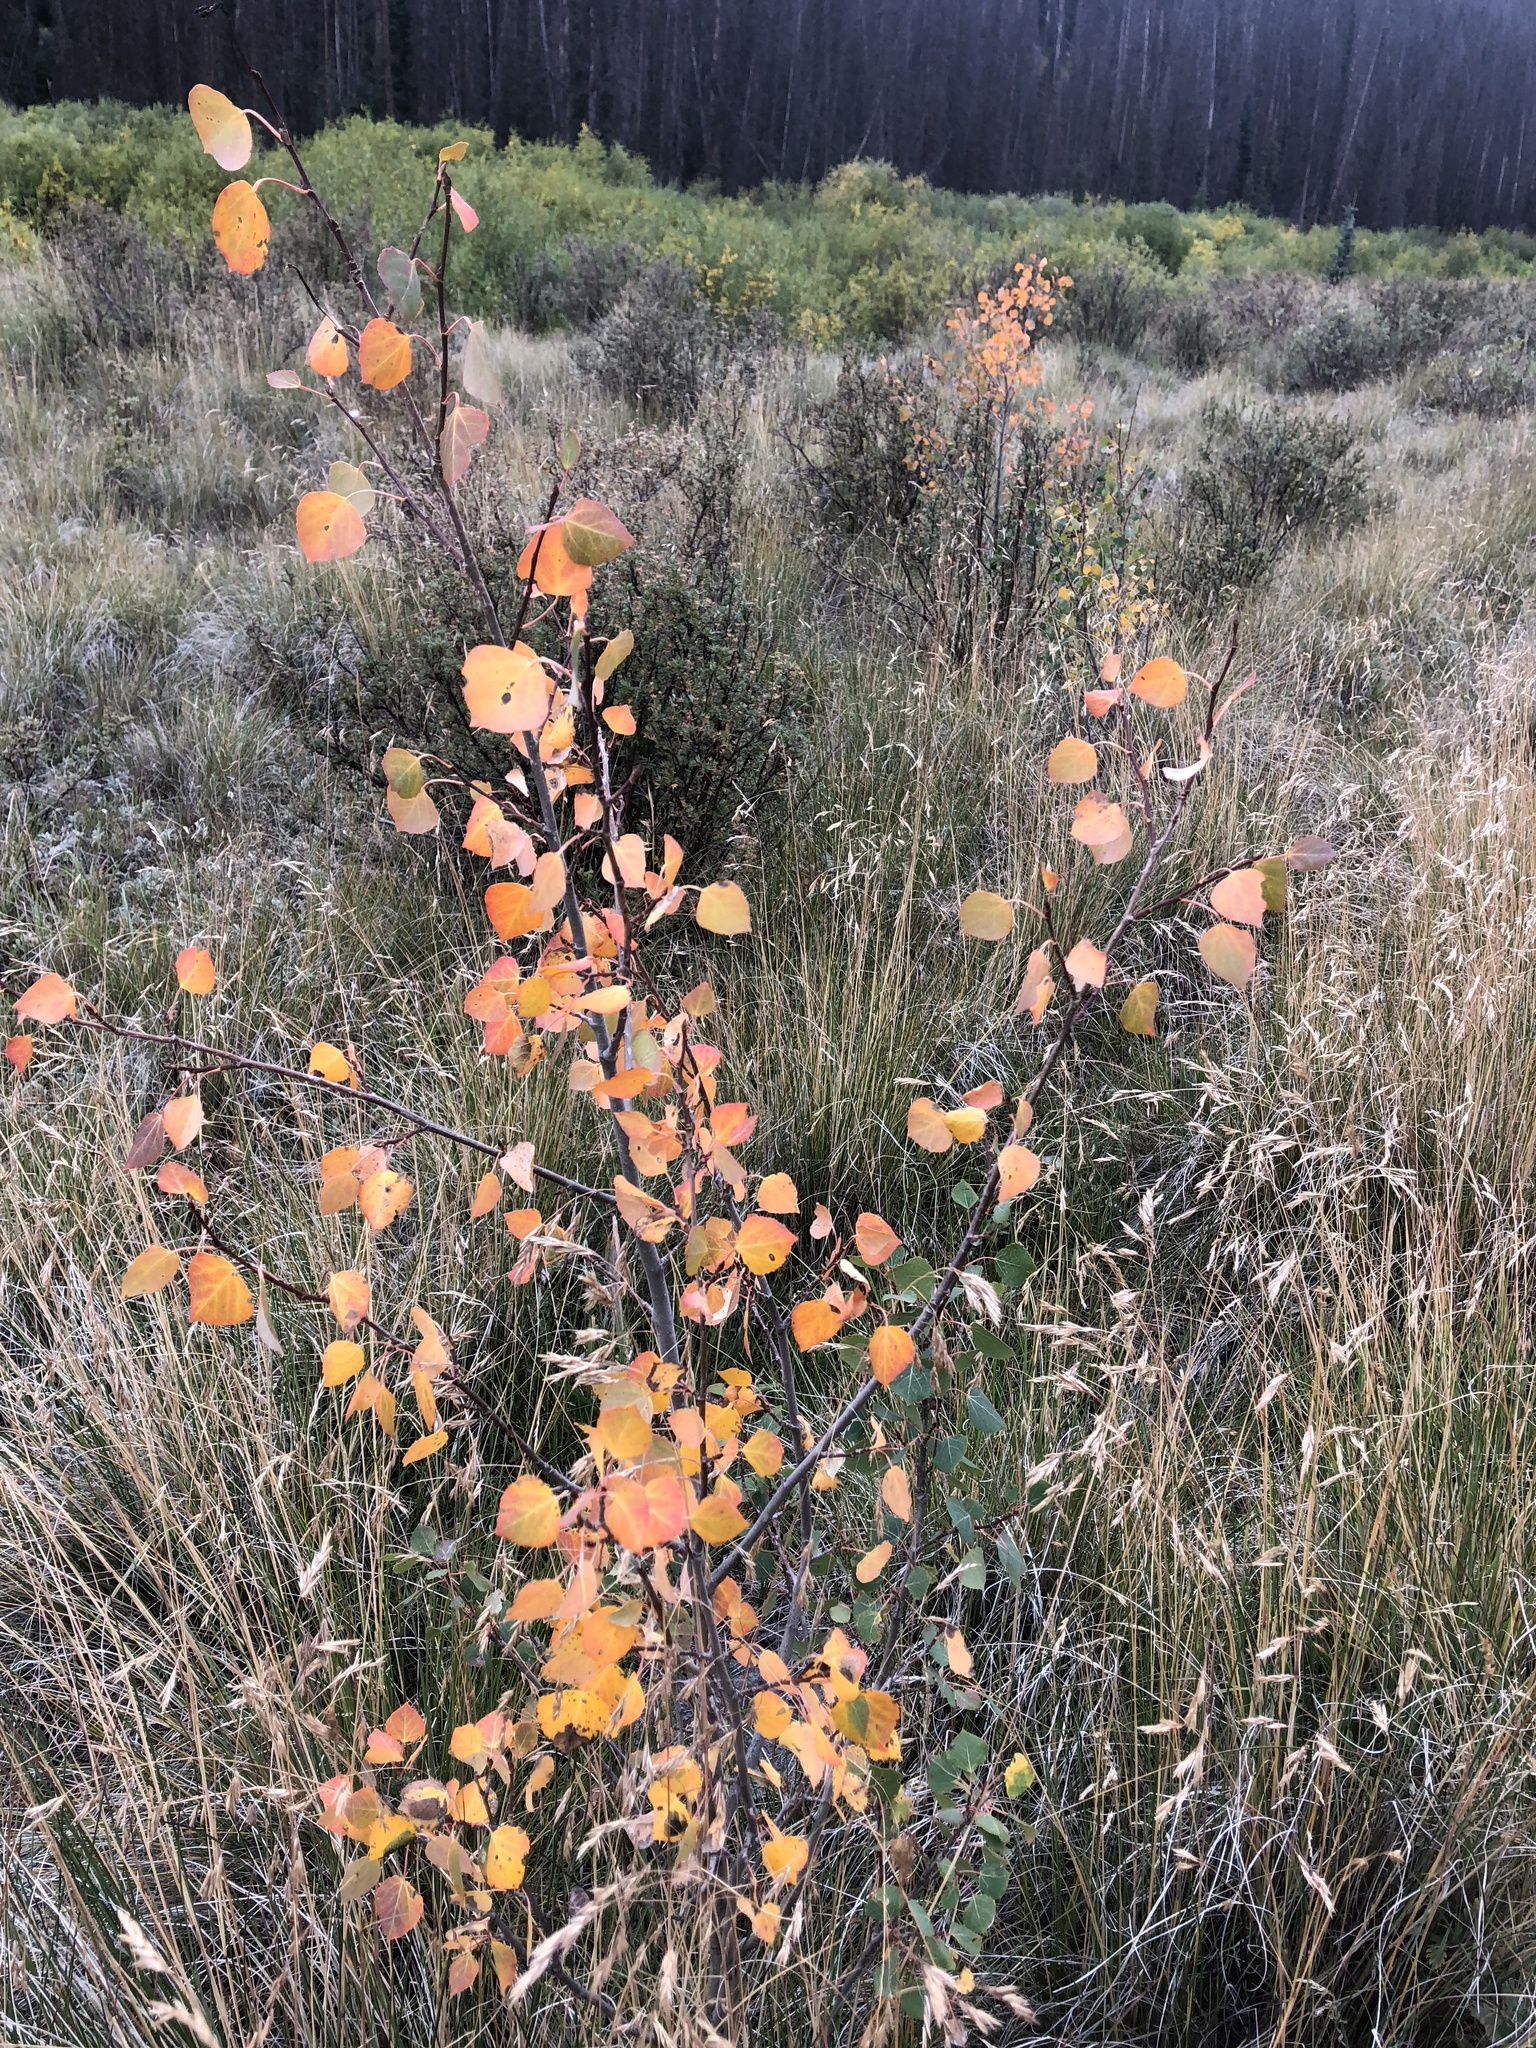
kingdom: Plantae
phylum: Tracheophyta
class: Magnoliopsida
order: Malpighiales
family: Salicaceae
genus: Populus
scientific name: Populus tremuloides
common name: Quaking aspen
